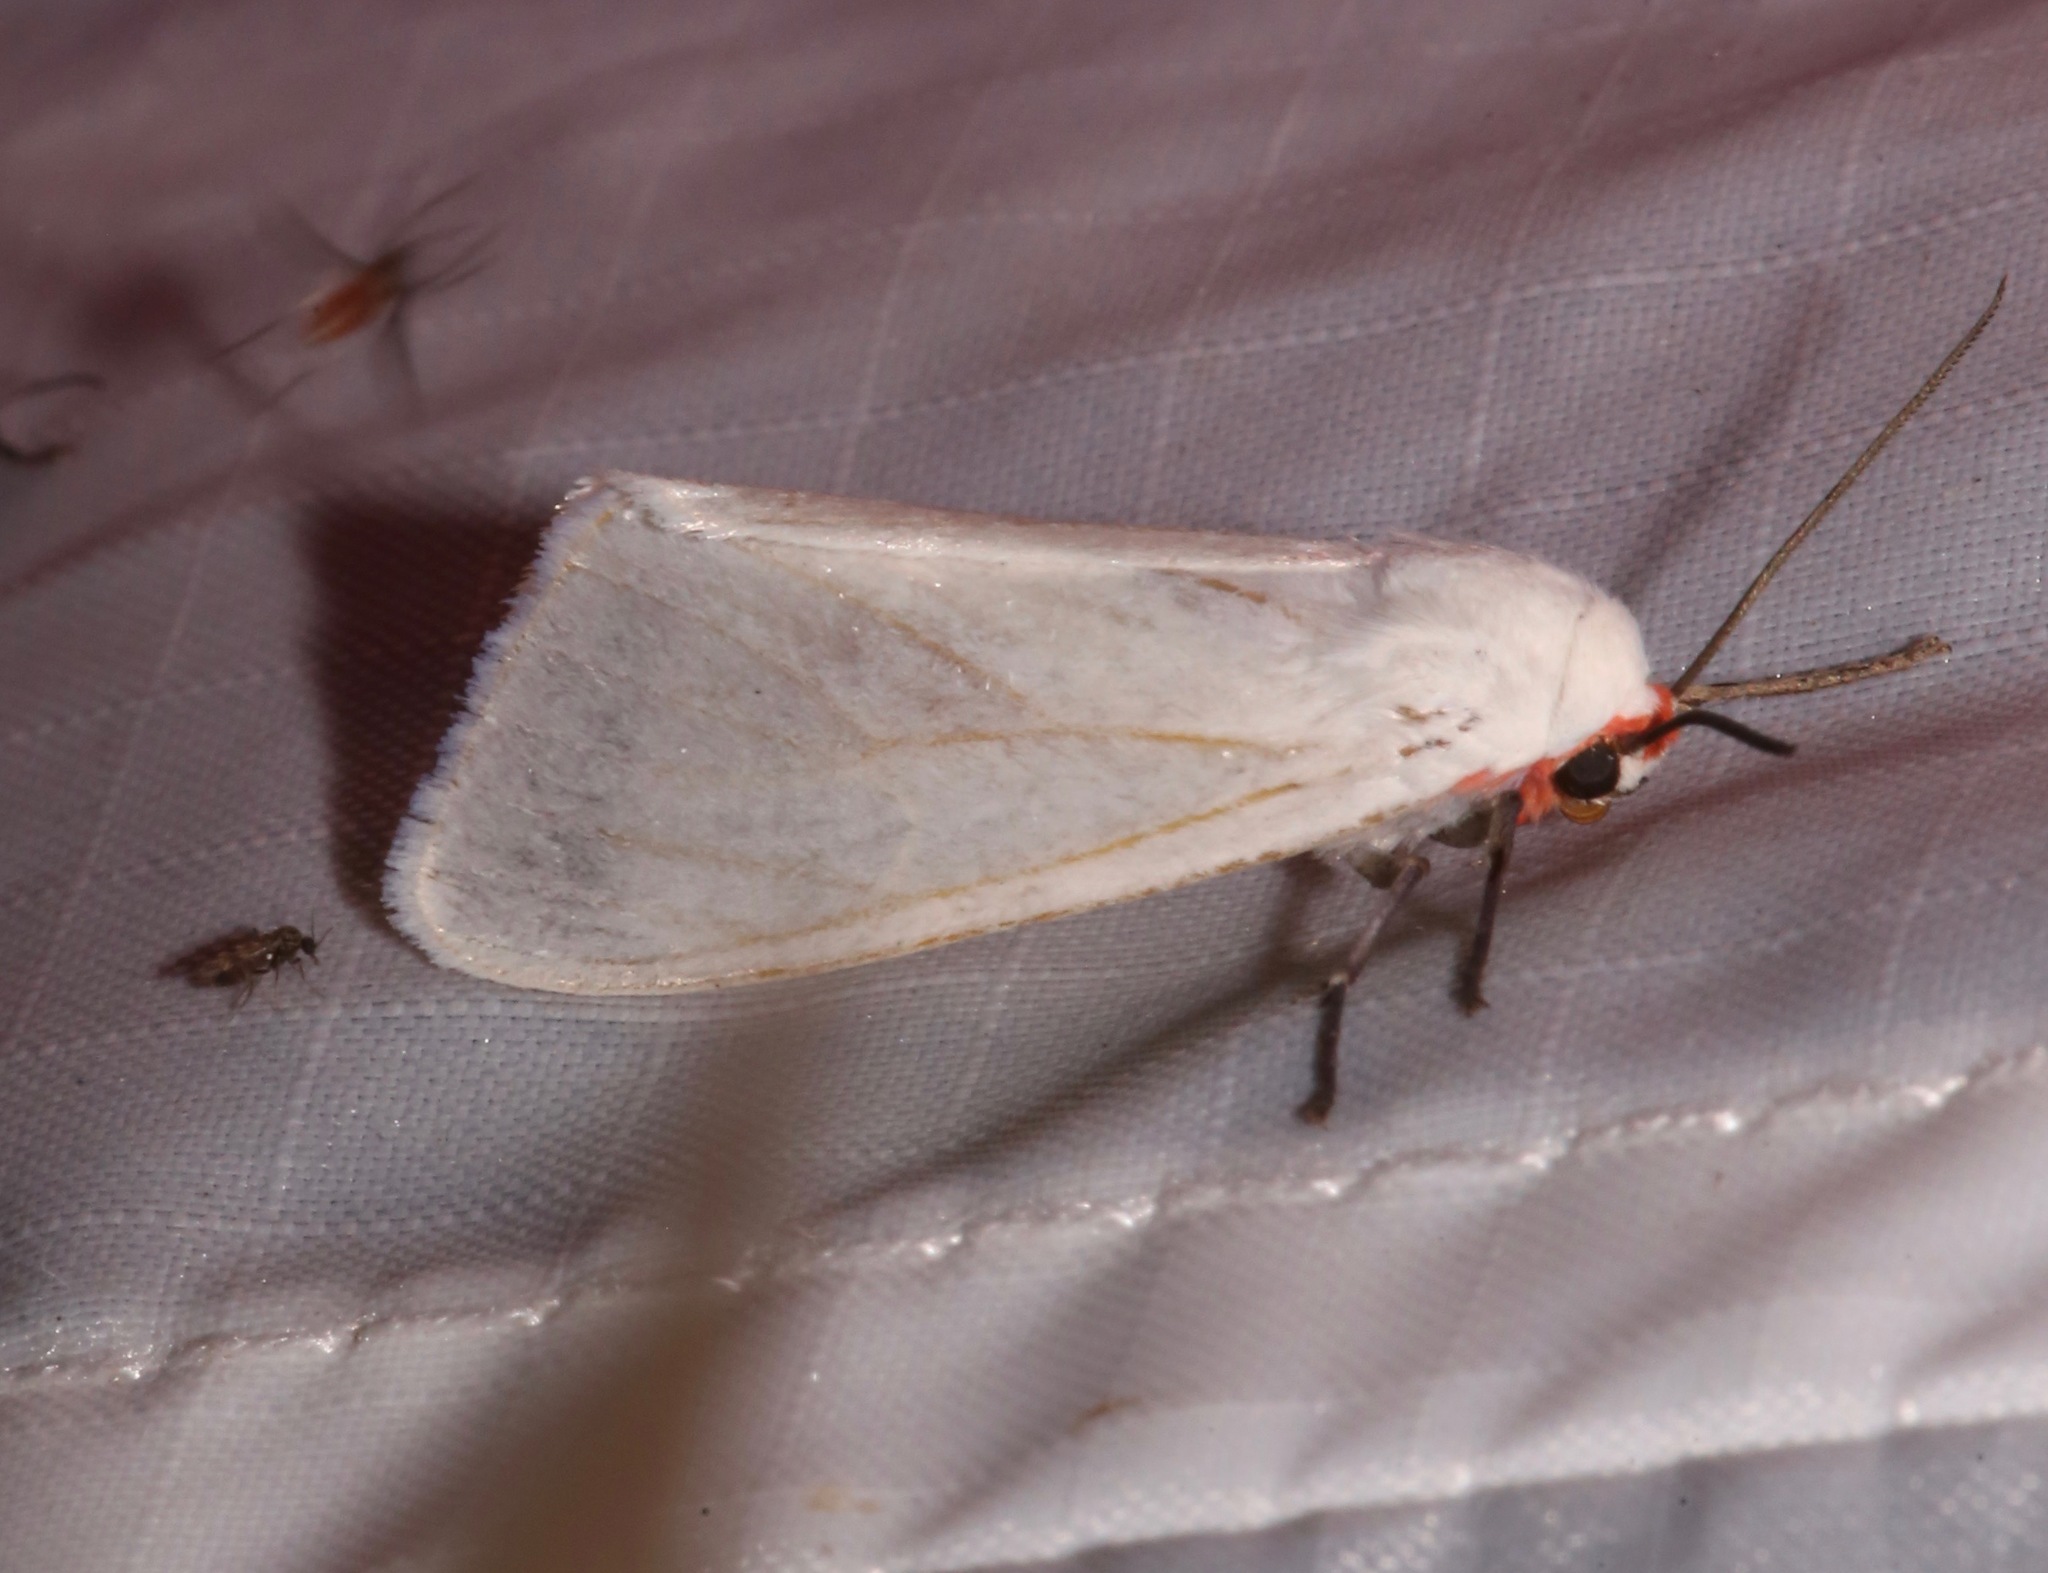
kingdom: Animalia
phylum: Arthropoda
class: Insecta
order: Lepidoptera
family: Erebidae
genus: Pygarctia
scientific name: Pygarctia roseicapitis
